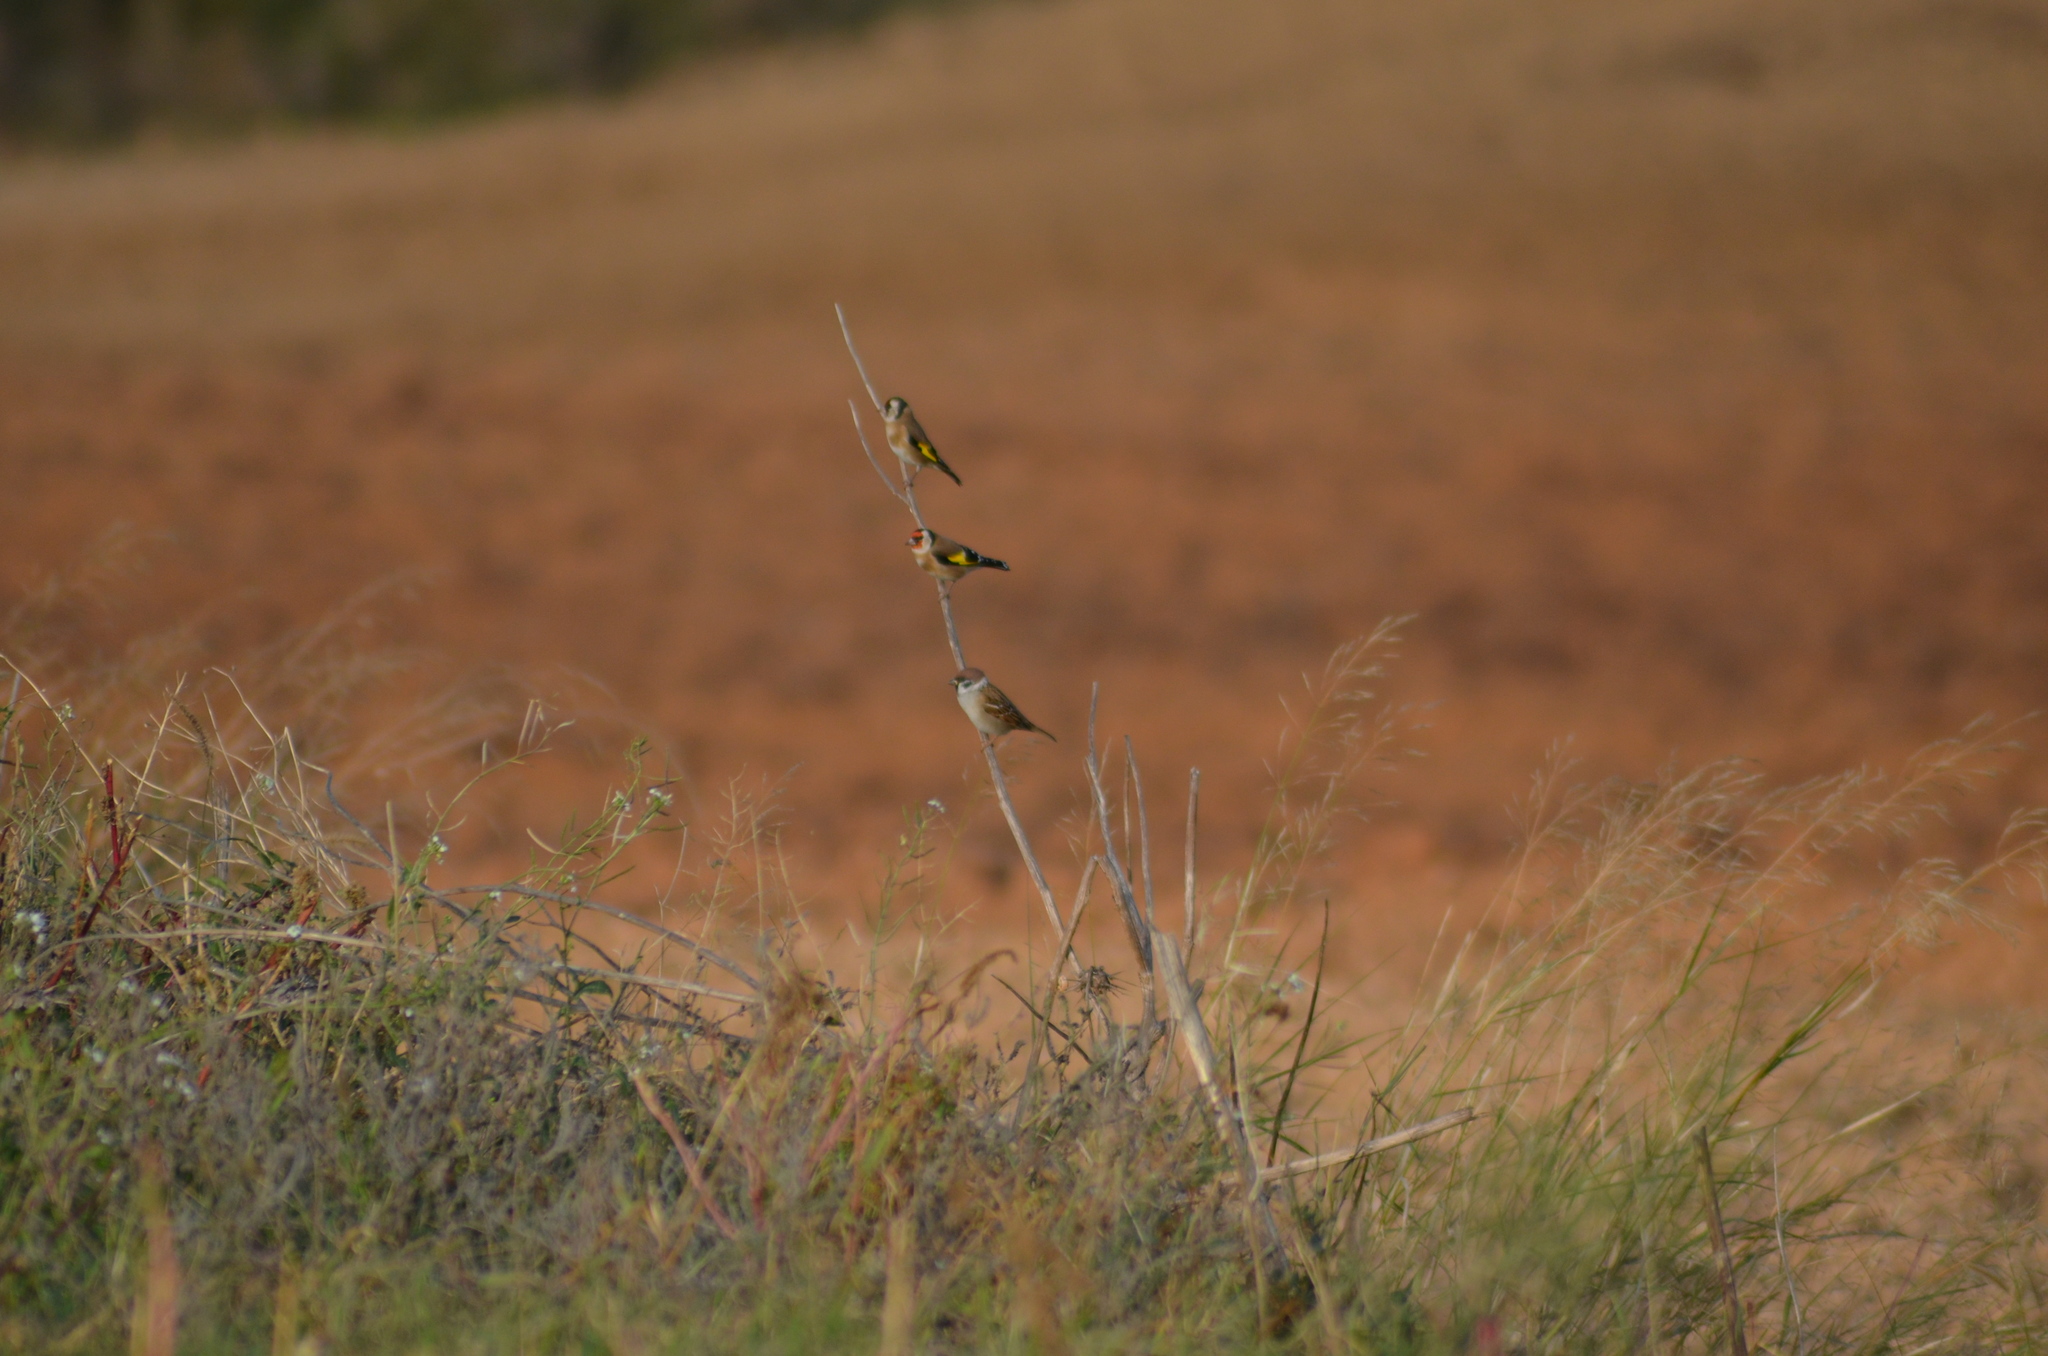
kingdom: Animalia
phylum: Chordata
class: Aves
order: Passeriformes
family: Fringillidae
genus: Carduelis
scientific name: Carduelis carduelis
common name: European goldfinch
